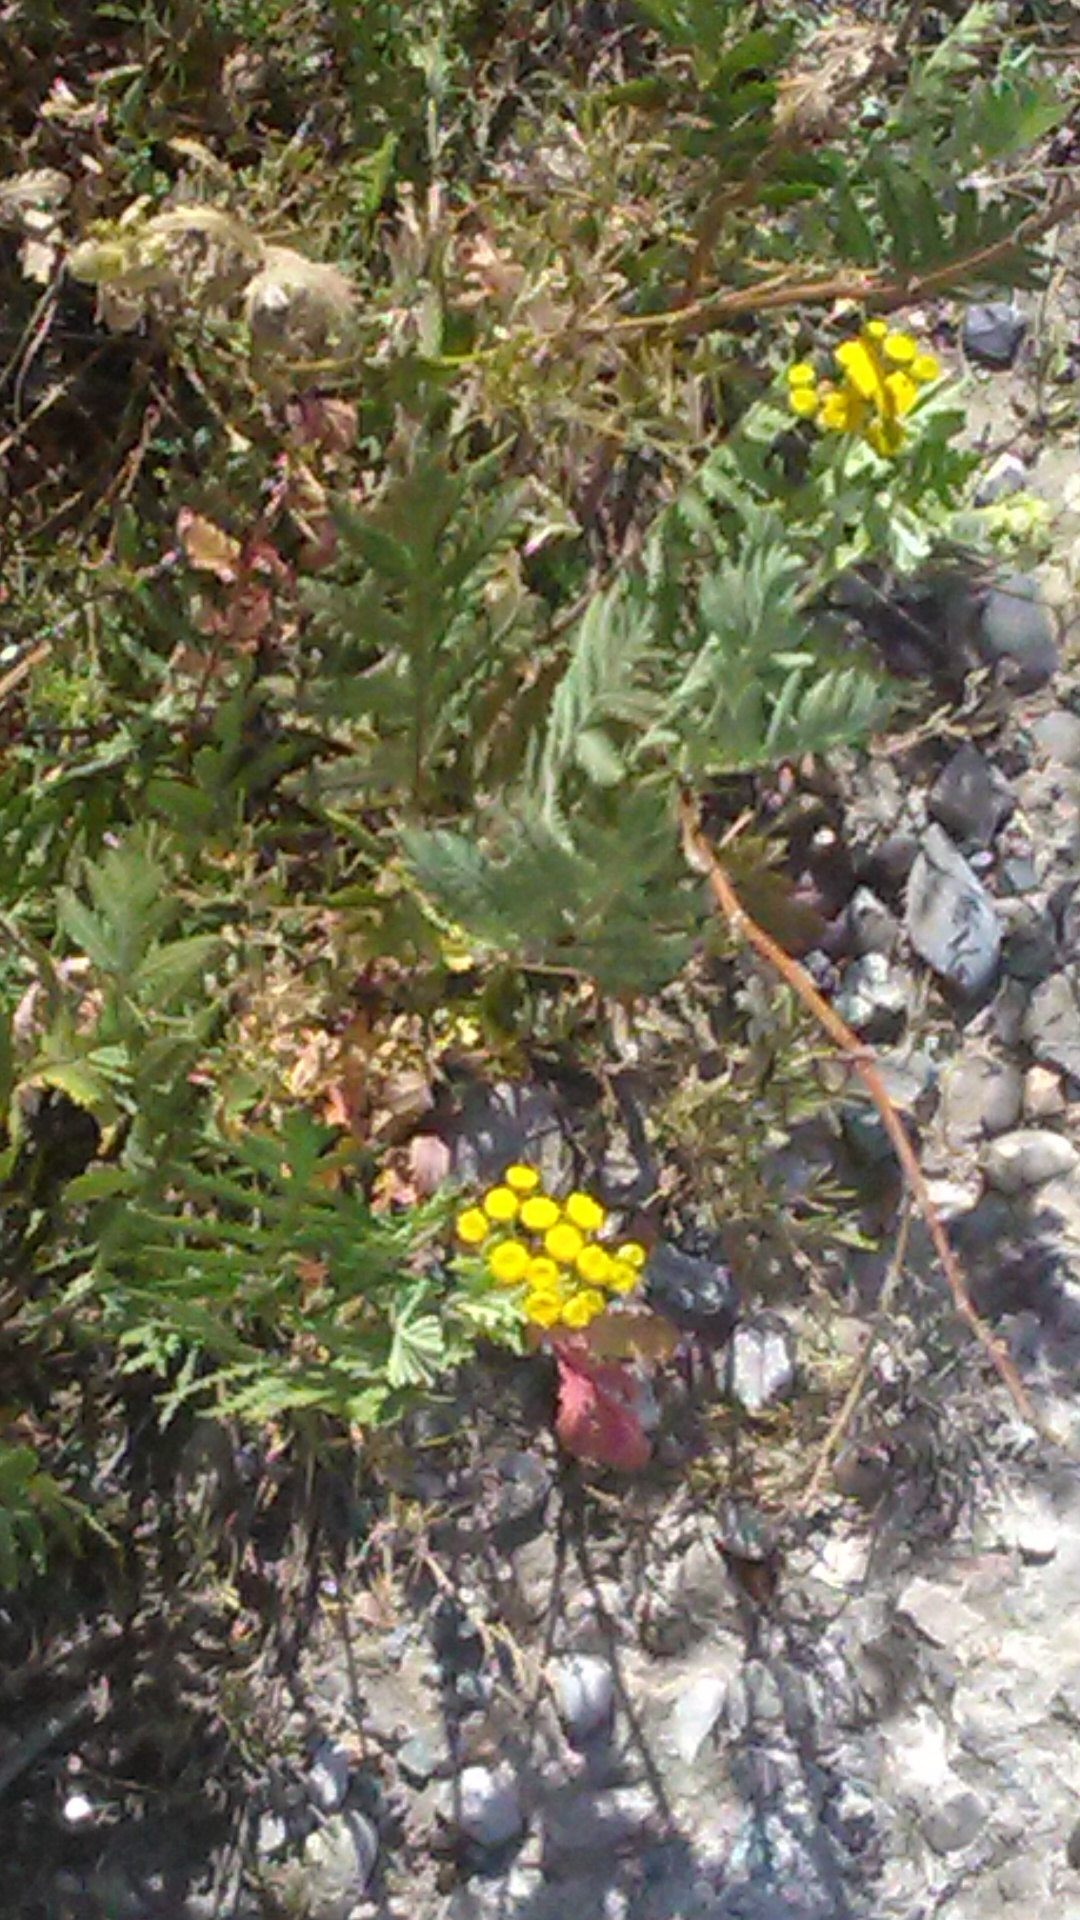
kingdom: Plantae
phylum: Tracheophyta
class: Magnoliopsida
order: Asterales
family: Asteraceae
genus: Tanacetum
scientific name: Tanacetum vulgare
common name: Common tansy
